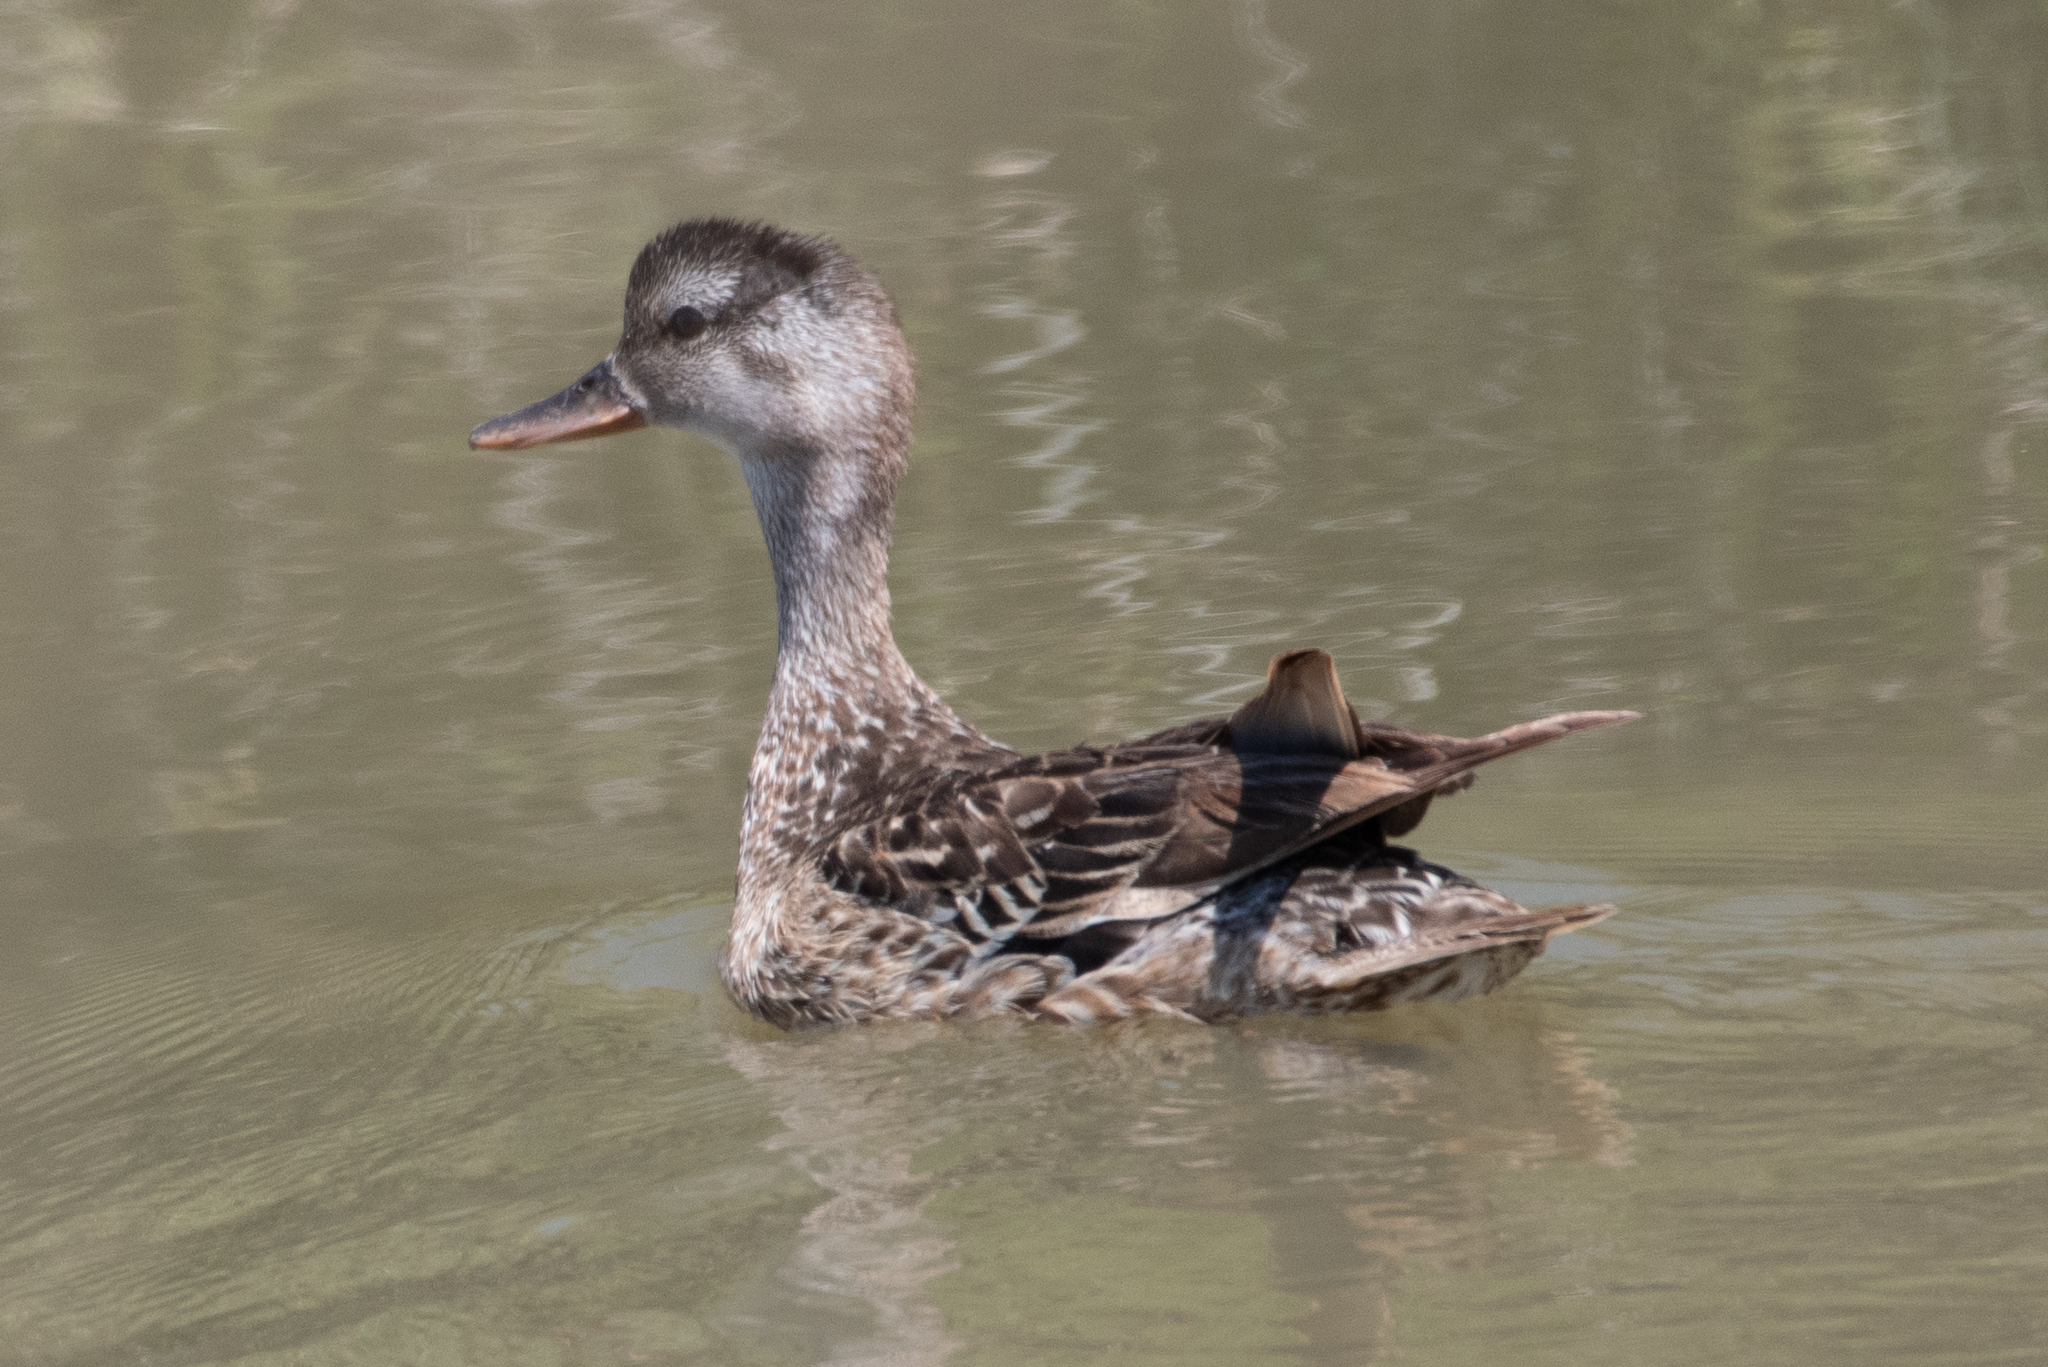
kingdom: Animalia
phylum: Chordata
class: Aves
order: Anseriformes
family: Anatidae
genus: Mareca
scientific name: Mareca strepera
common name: Gadwall
